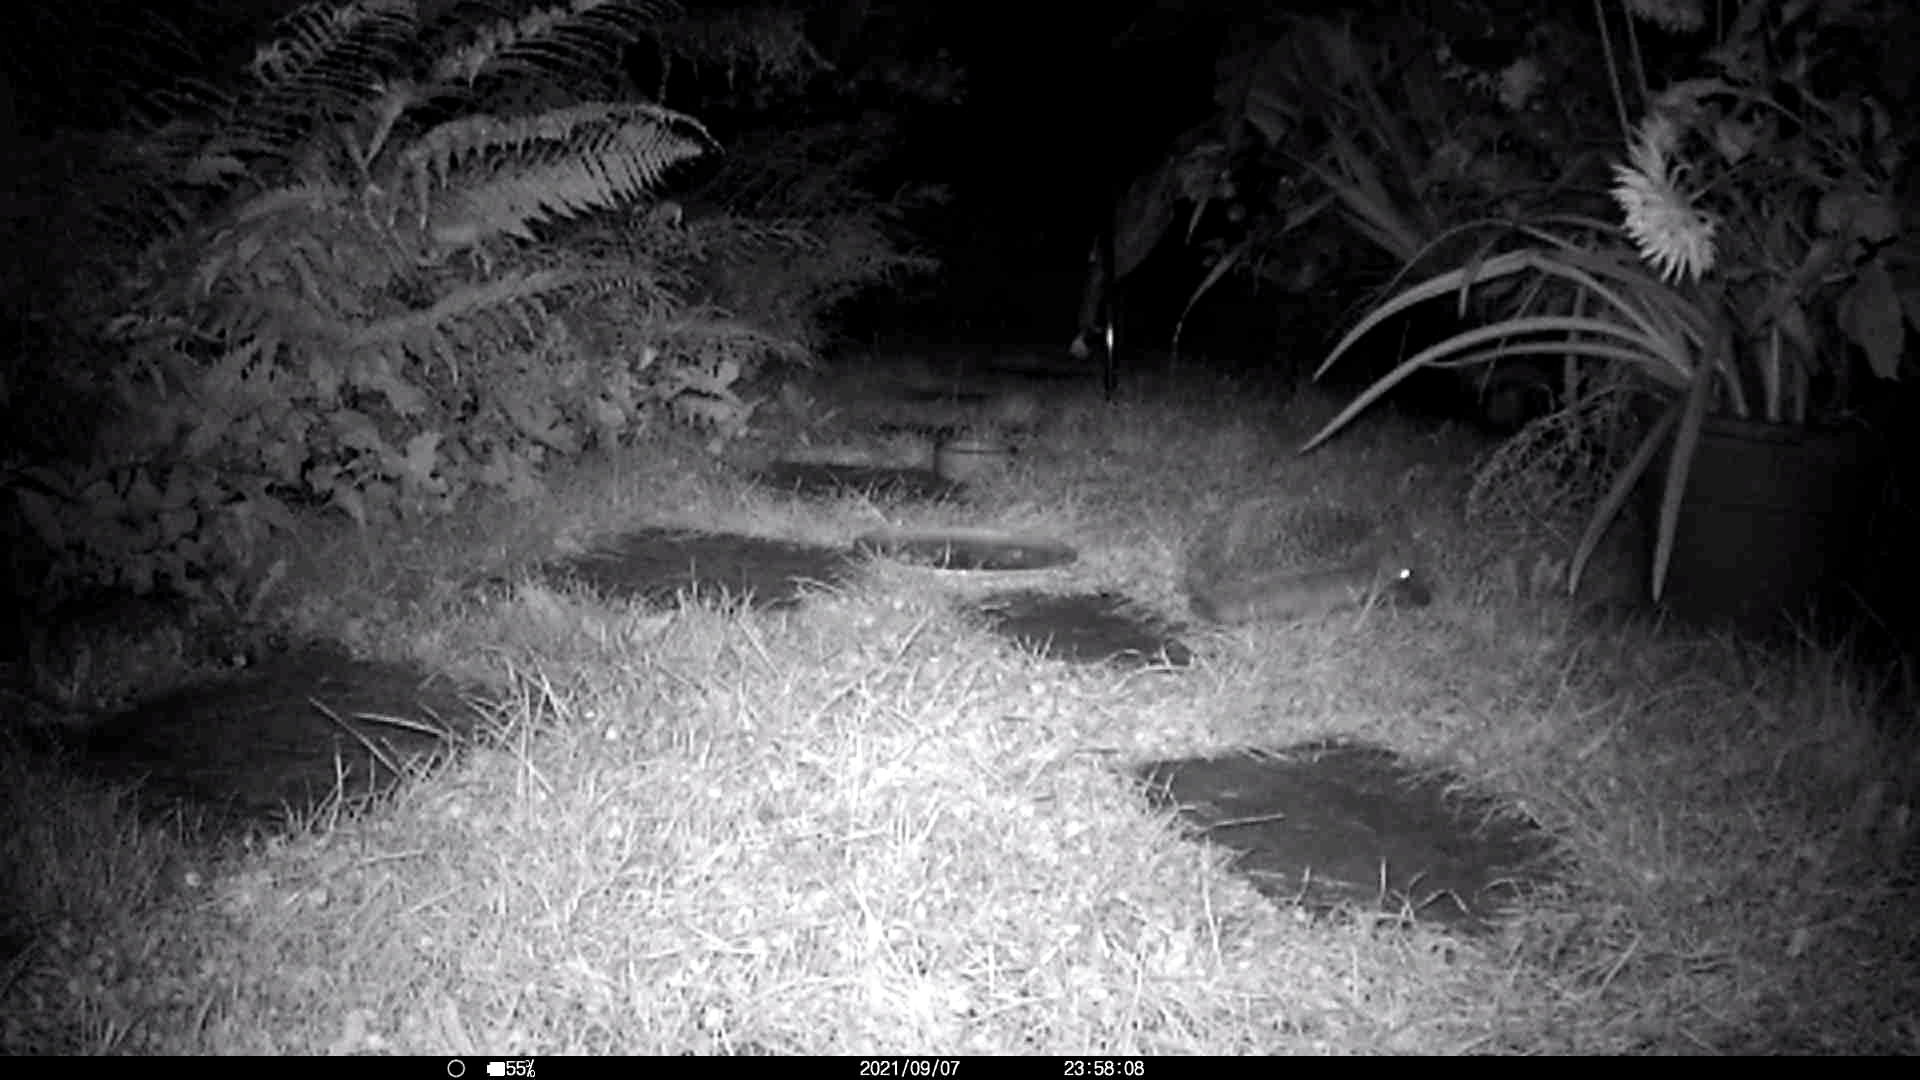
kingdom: Animalia
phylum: Chordata
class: Mammalia
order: Erinaceomorpha
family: Erinaceidae
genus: Erinaceus
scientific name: Erinaceus europaeus
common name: West european hedgehog
